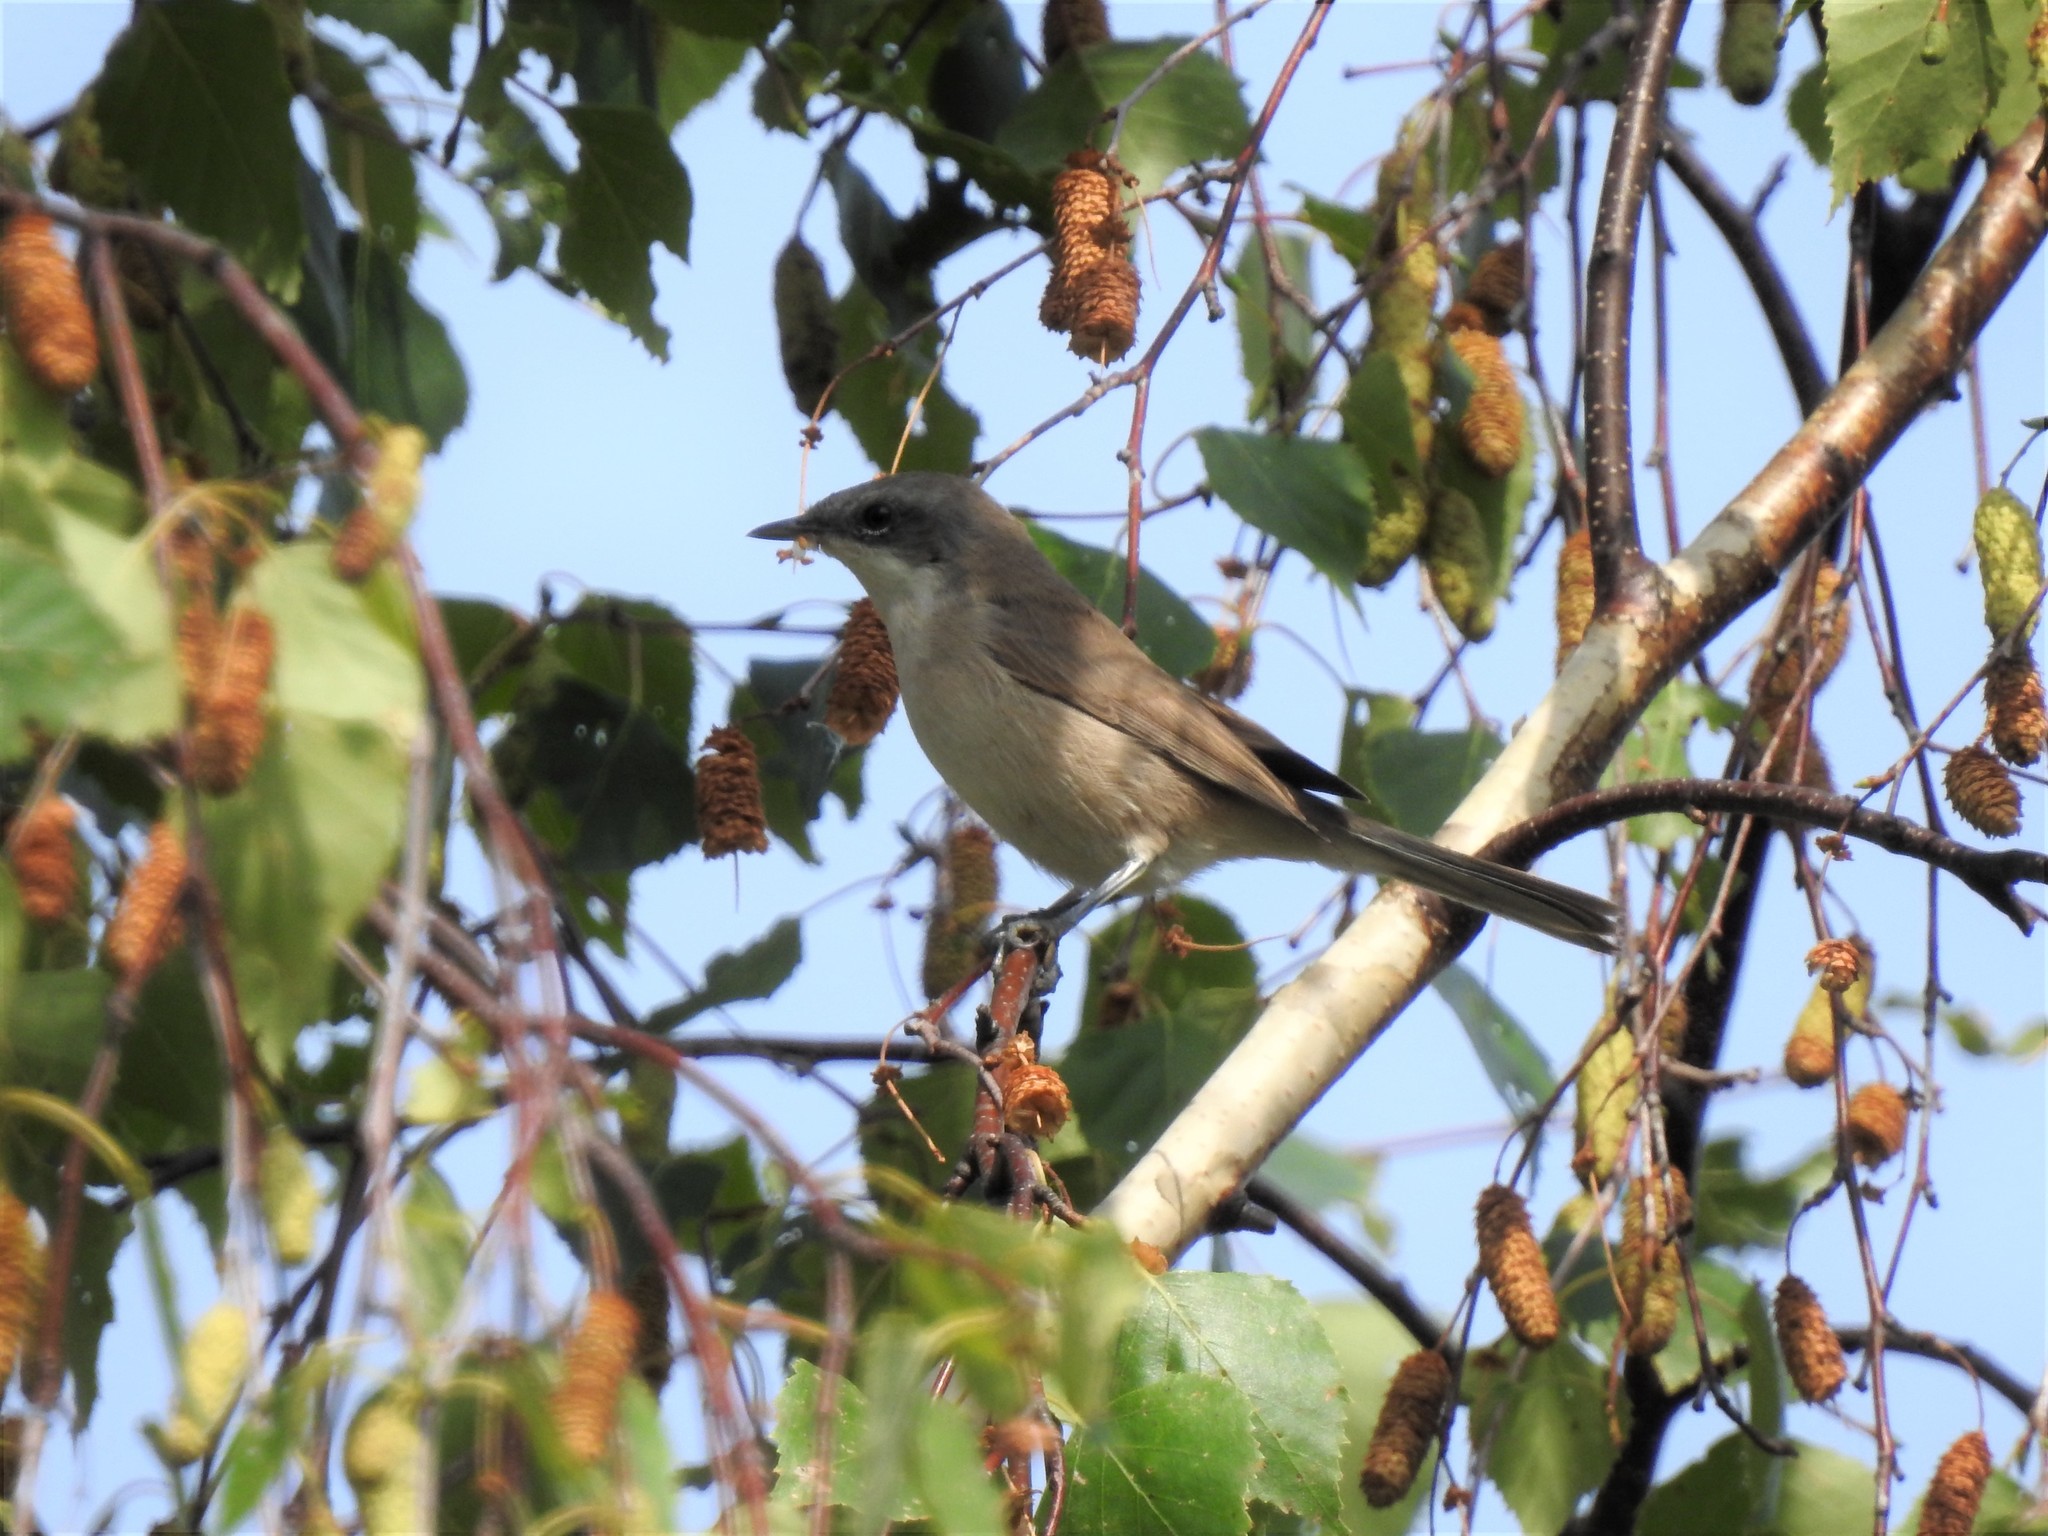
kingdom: Animalia
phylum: Chordata
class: Aves
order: Passeriformes
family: Sylviidae
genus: Sylvia
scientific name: Sylvia curruca
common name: Lesser whitethroat
